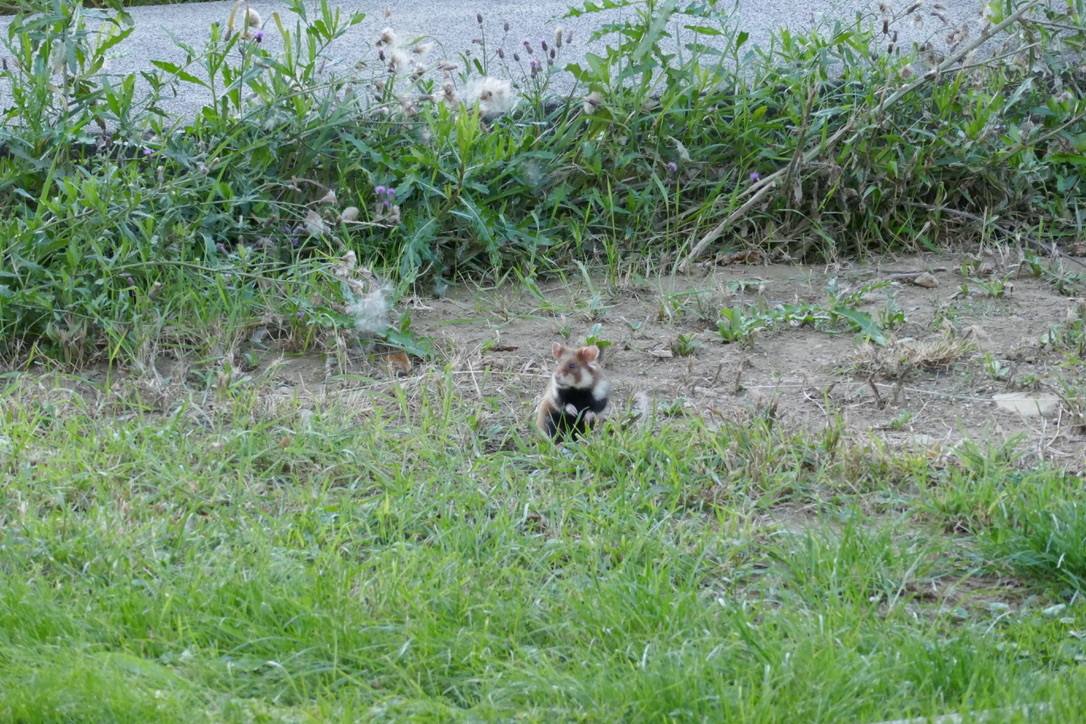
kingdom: Animalia
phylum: Chordata
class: Mammalia
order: Rodentia
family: Cricetidae
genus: Cricetus
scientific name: Cricetus cricetus
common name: Common hamster
